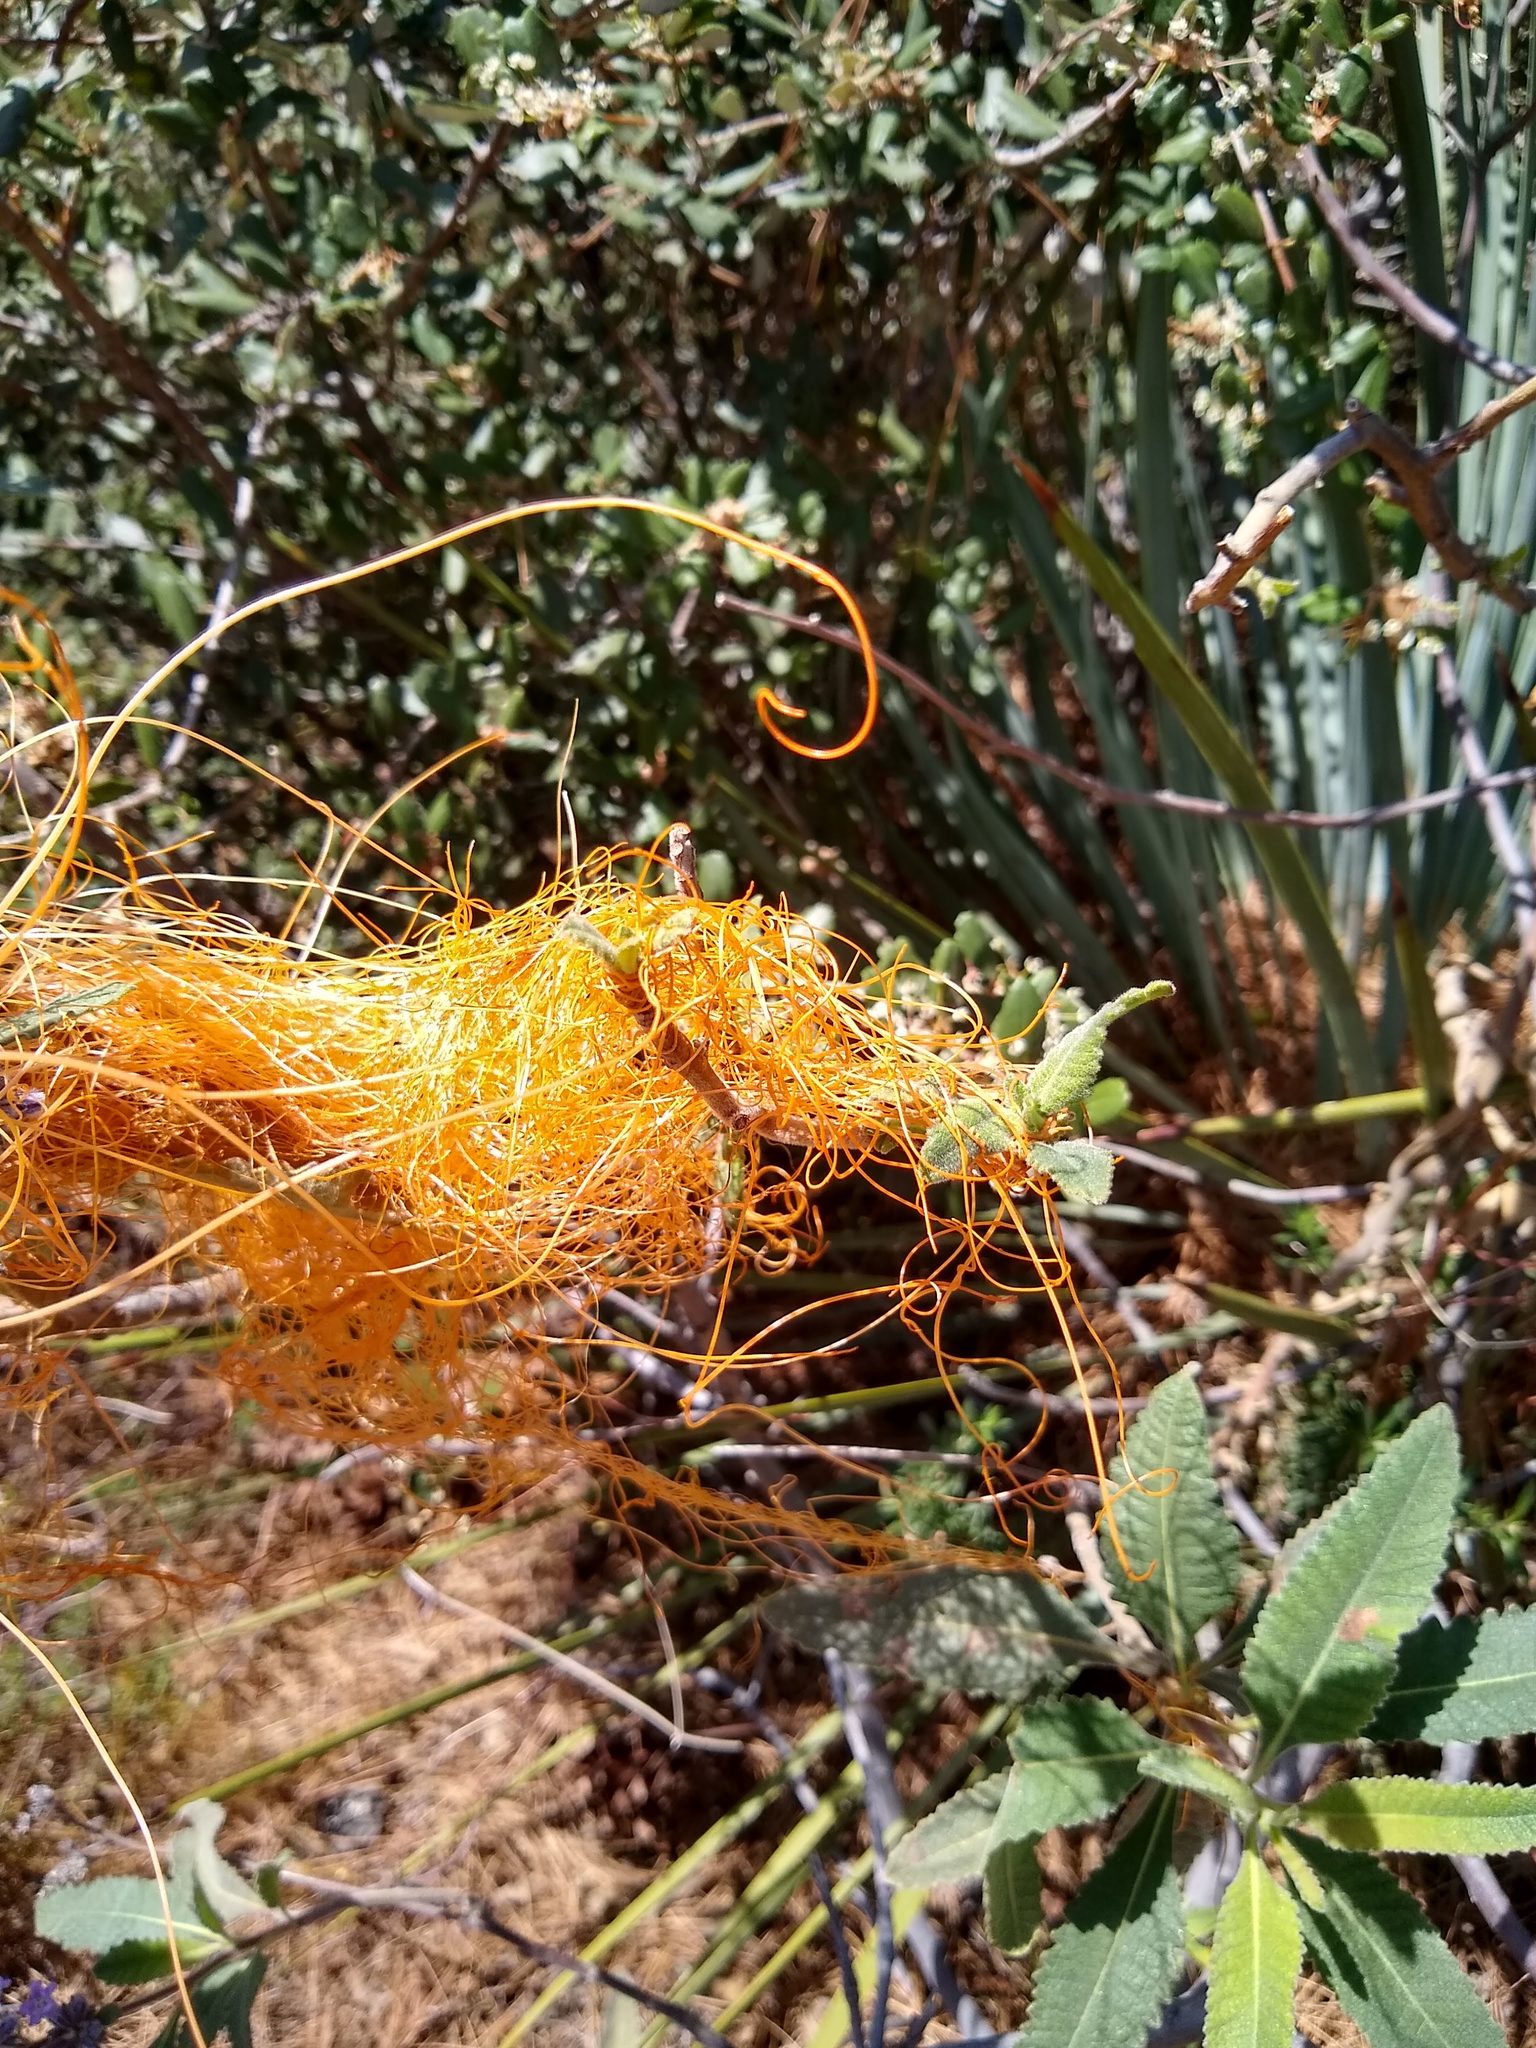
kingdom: Plantae
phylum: Tracheophyta
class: Magnoliopsida
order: Solanales
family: Convolvulaceae
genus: Cuscuta
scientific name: Cuscuta californica
